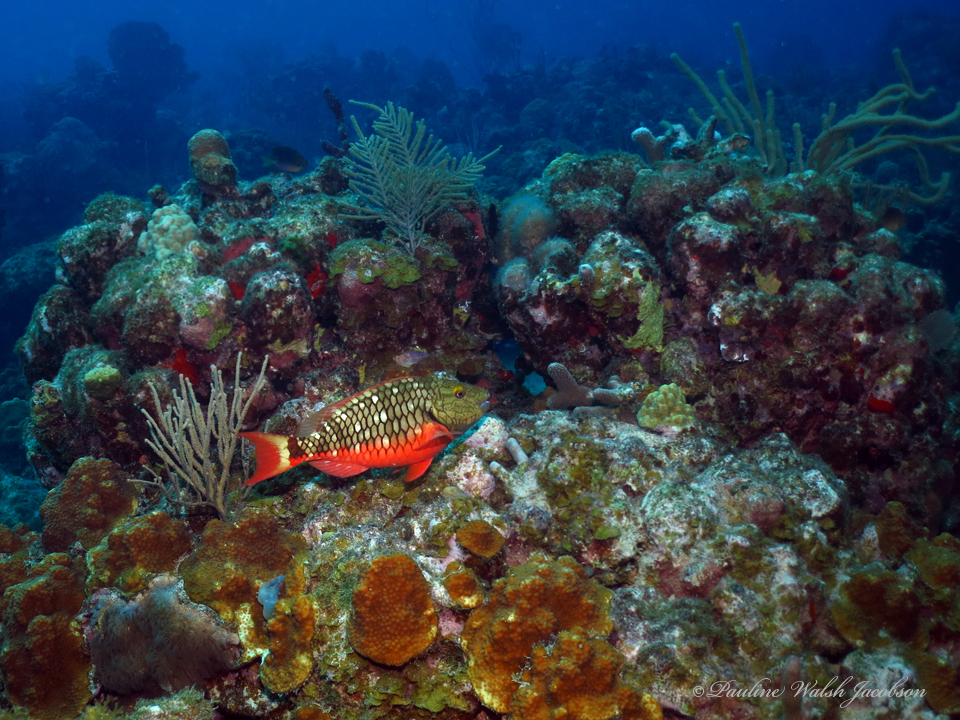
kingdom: Animalia
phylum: Chordata
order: Perciformes
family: Scaridae
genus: Sparisoma
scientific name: Sparisoma viride
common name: Stoplight parrotfish
